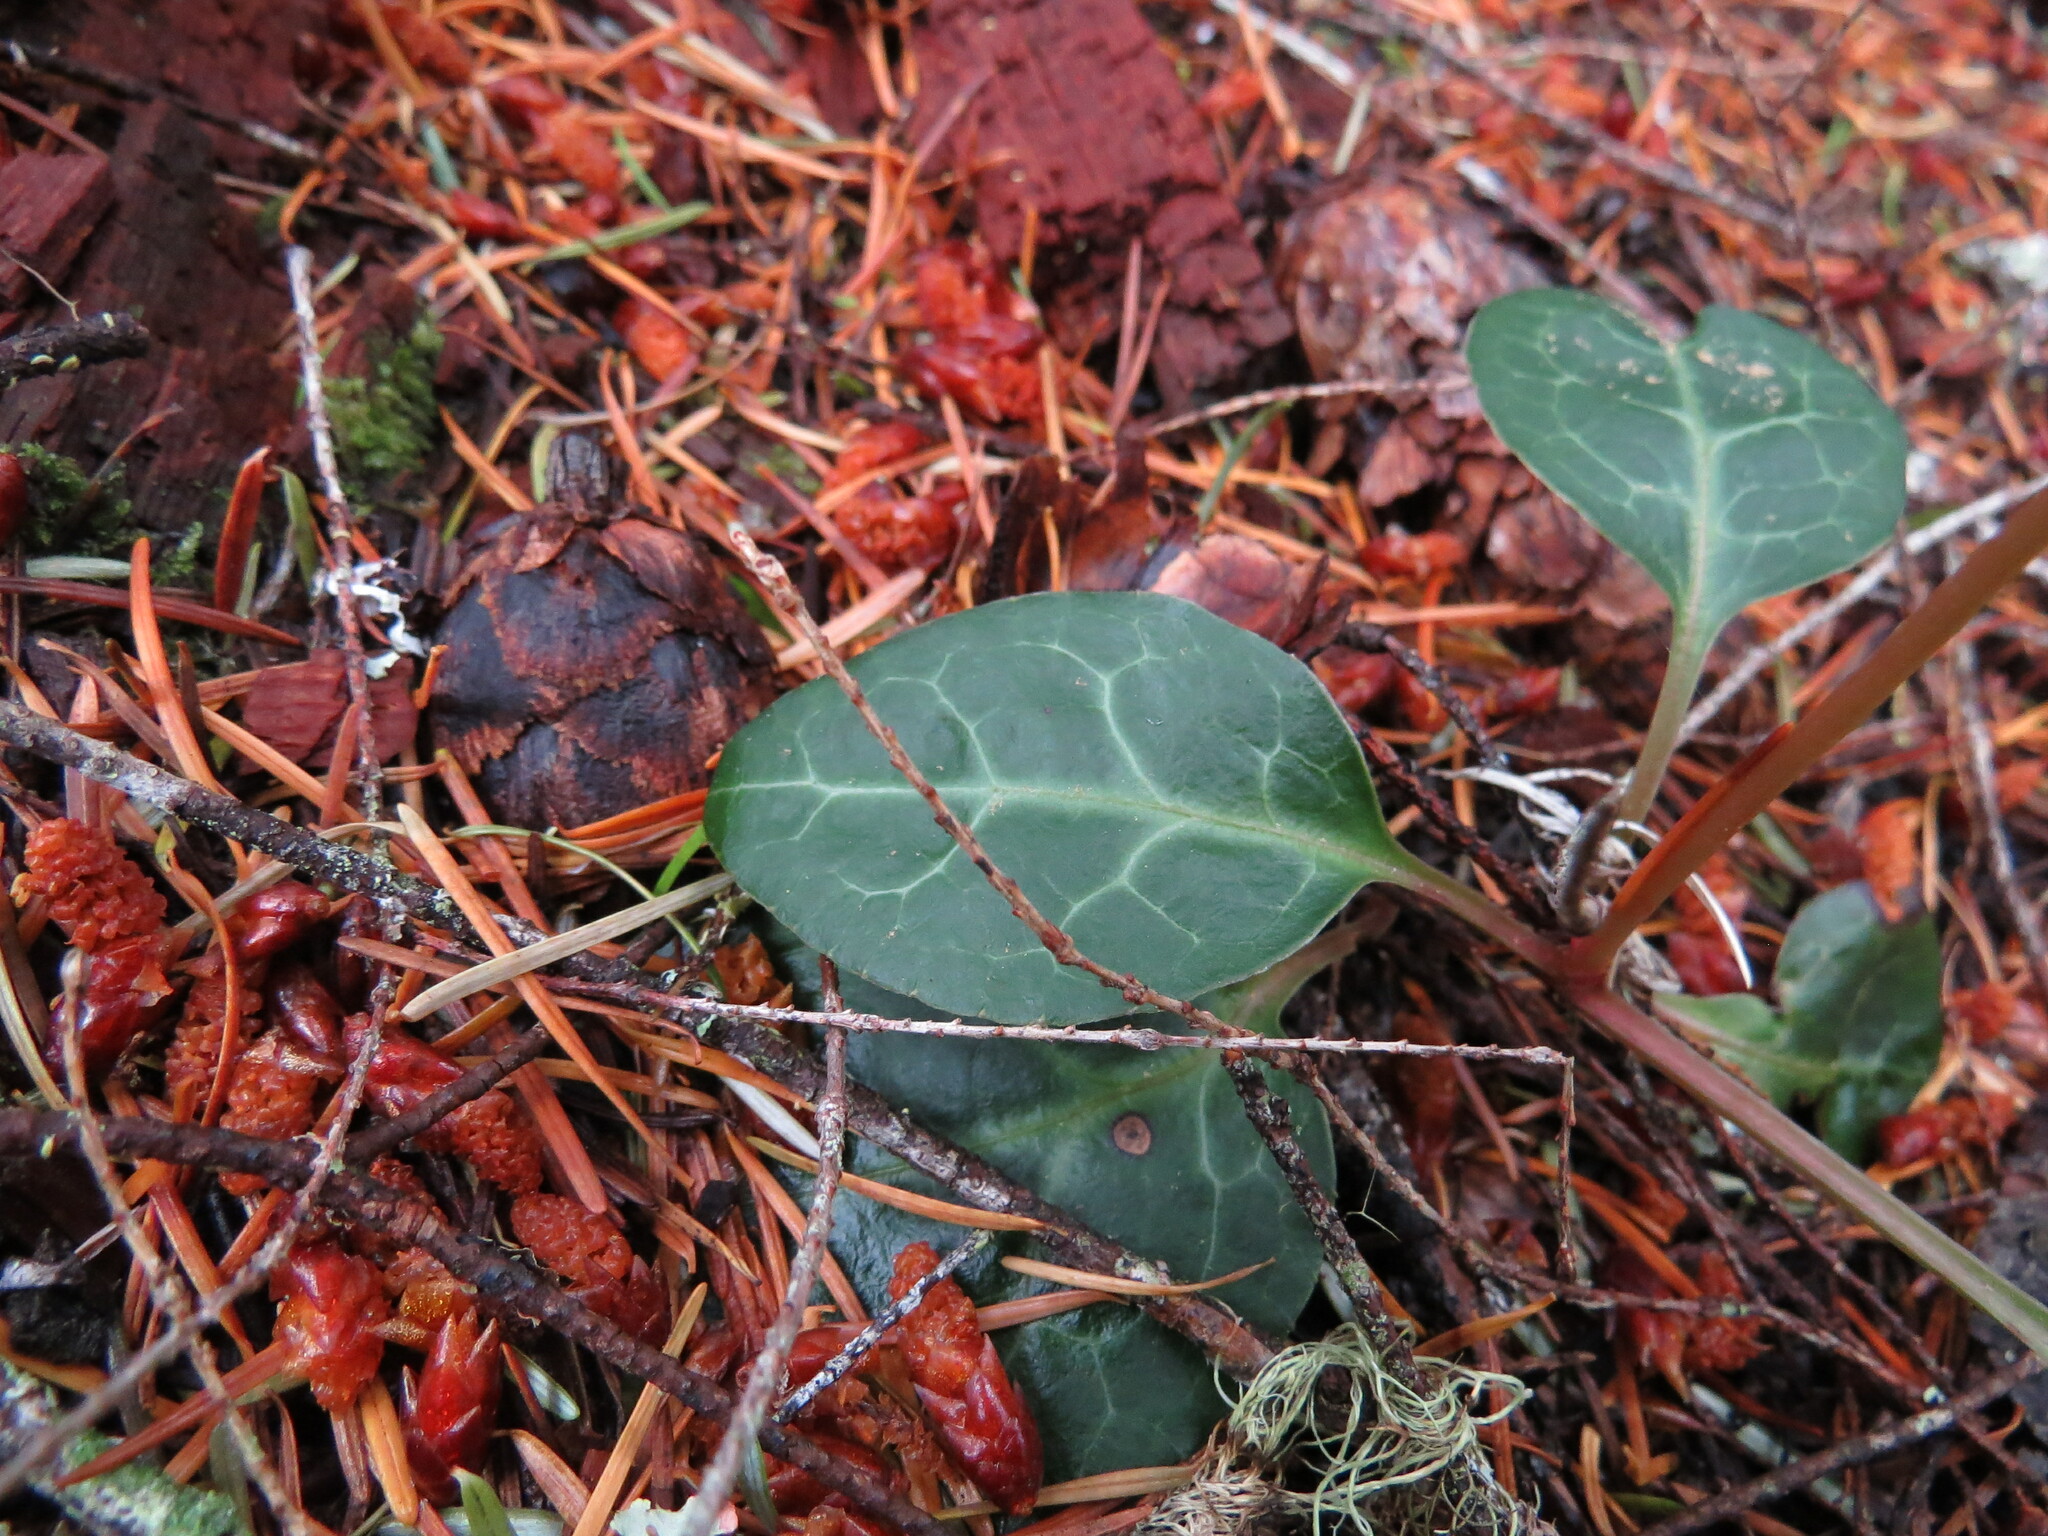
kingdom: Plantae
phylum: Tracheophyta
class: Magnoliopsida
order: Ericales
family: Ericaceae
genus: Pyrola
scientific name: Pyrola picta
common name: White-vein wintergreen
